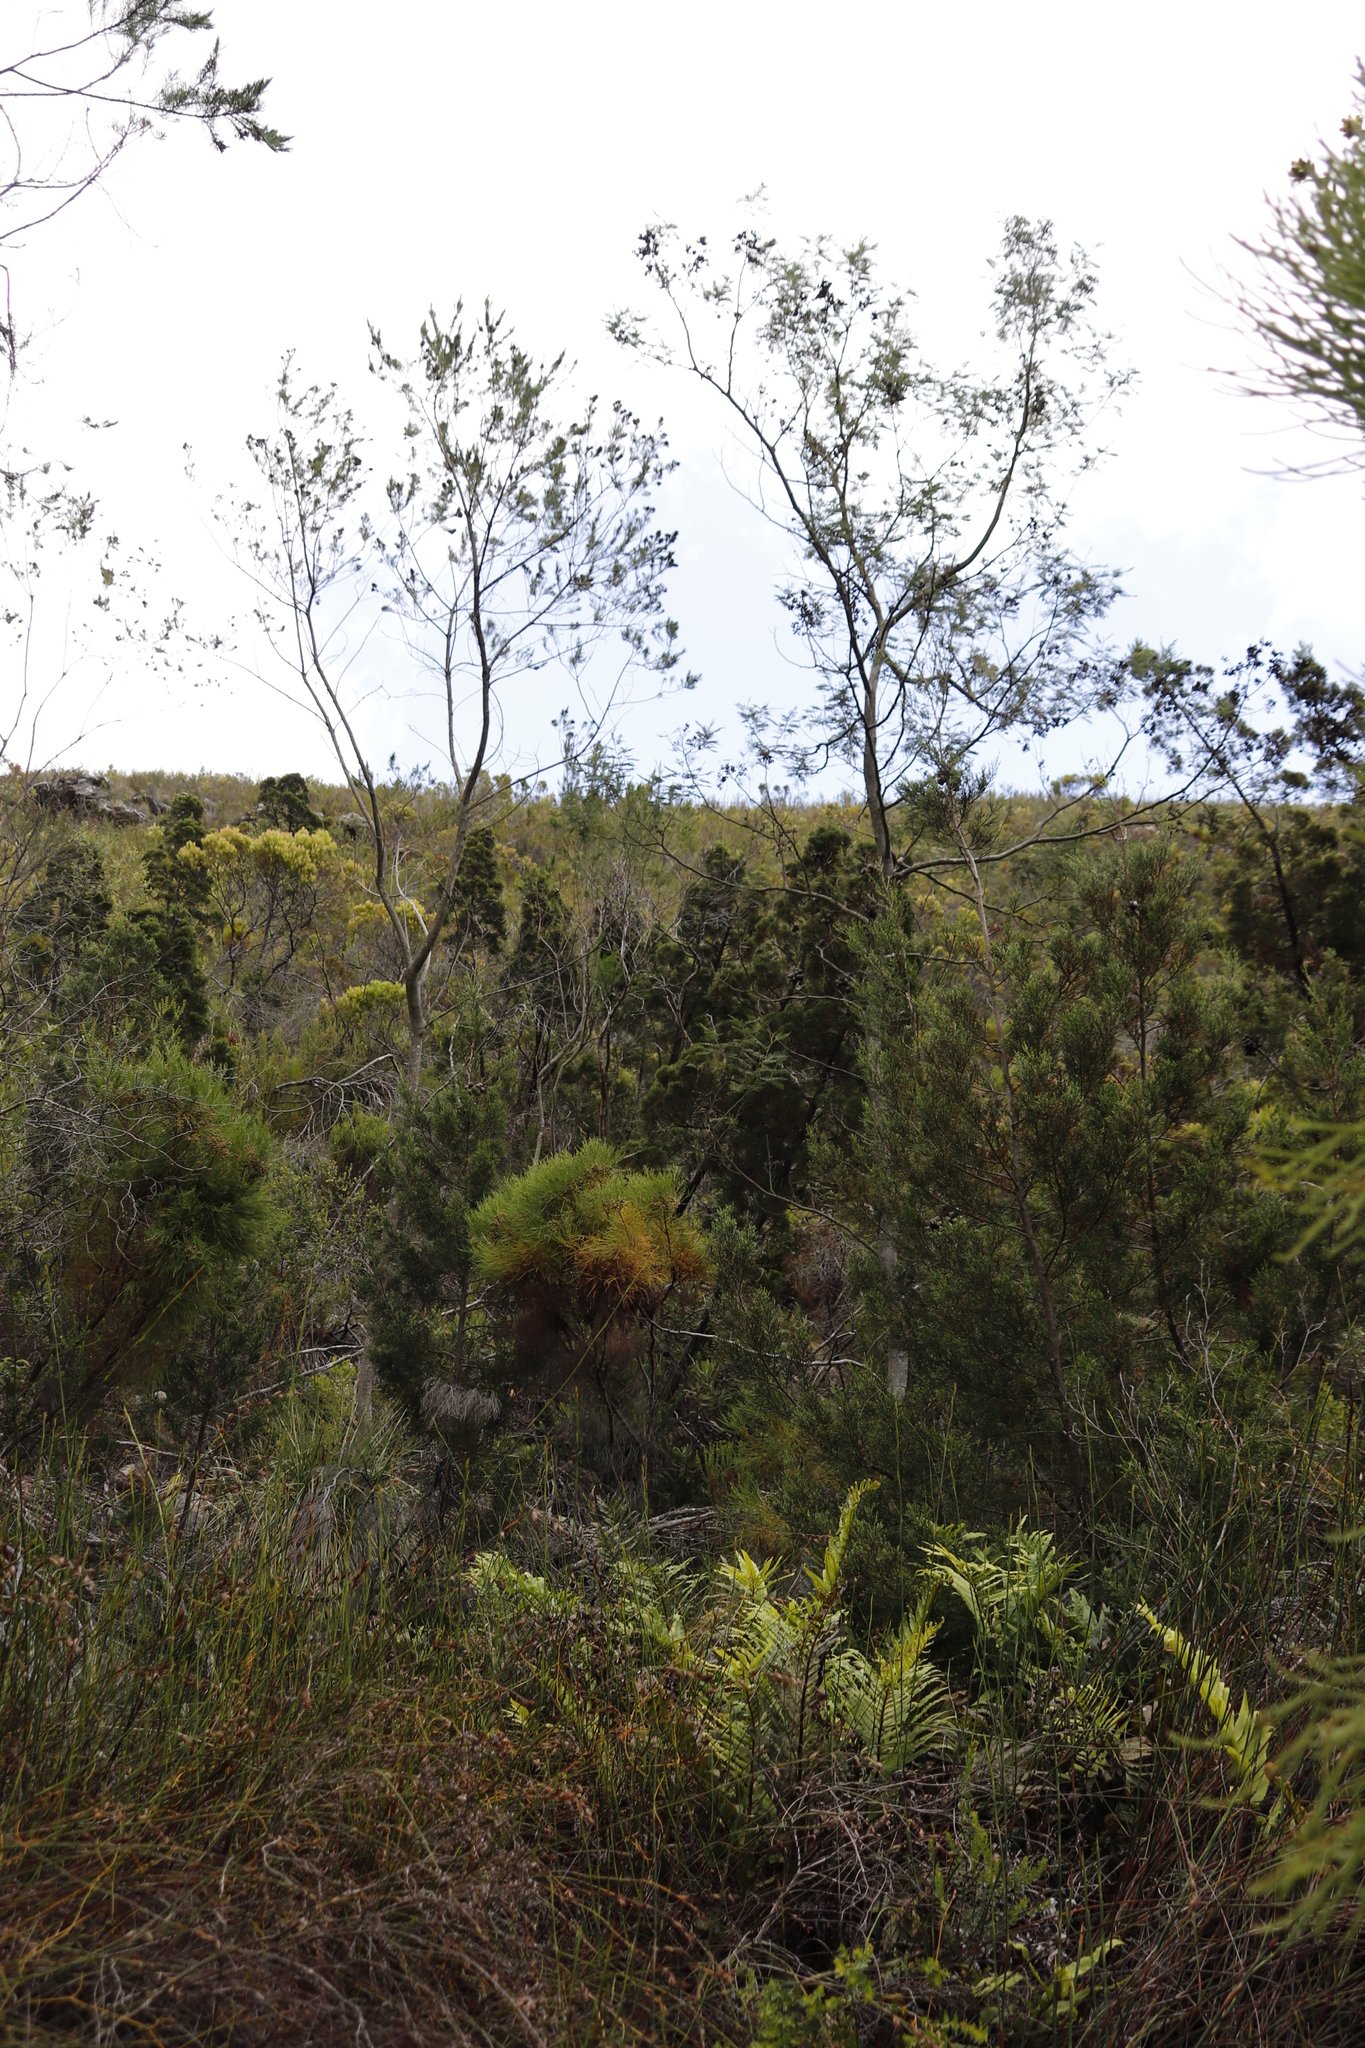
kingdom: Plantae
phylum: Tracheophyta
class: Magnoliopsida
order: Fabales
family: Fabaceae
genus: Acacia
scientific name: Acacia mearnsii
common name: Black wattle
